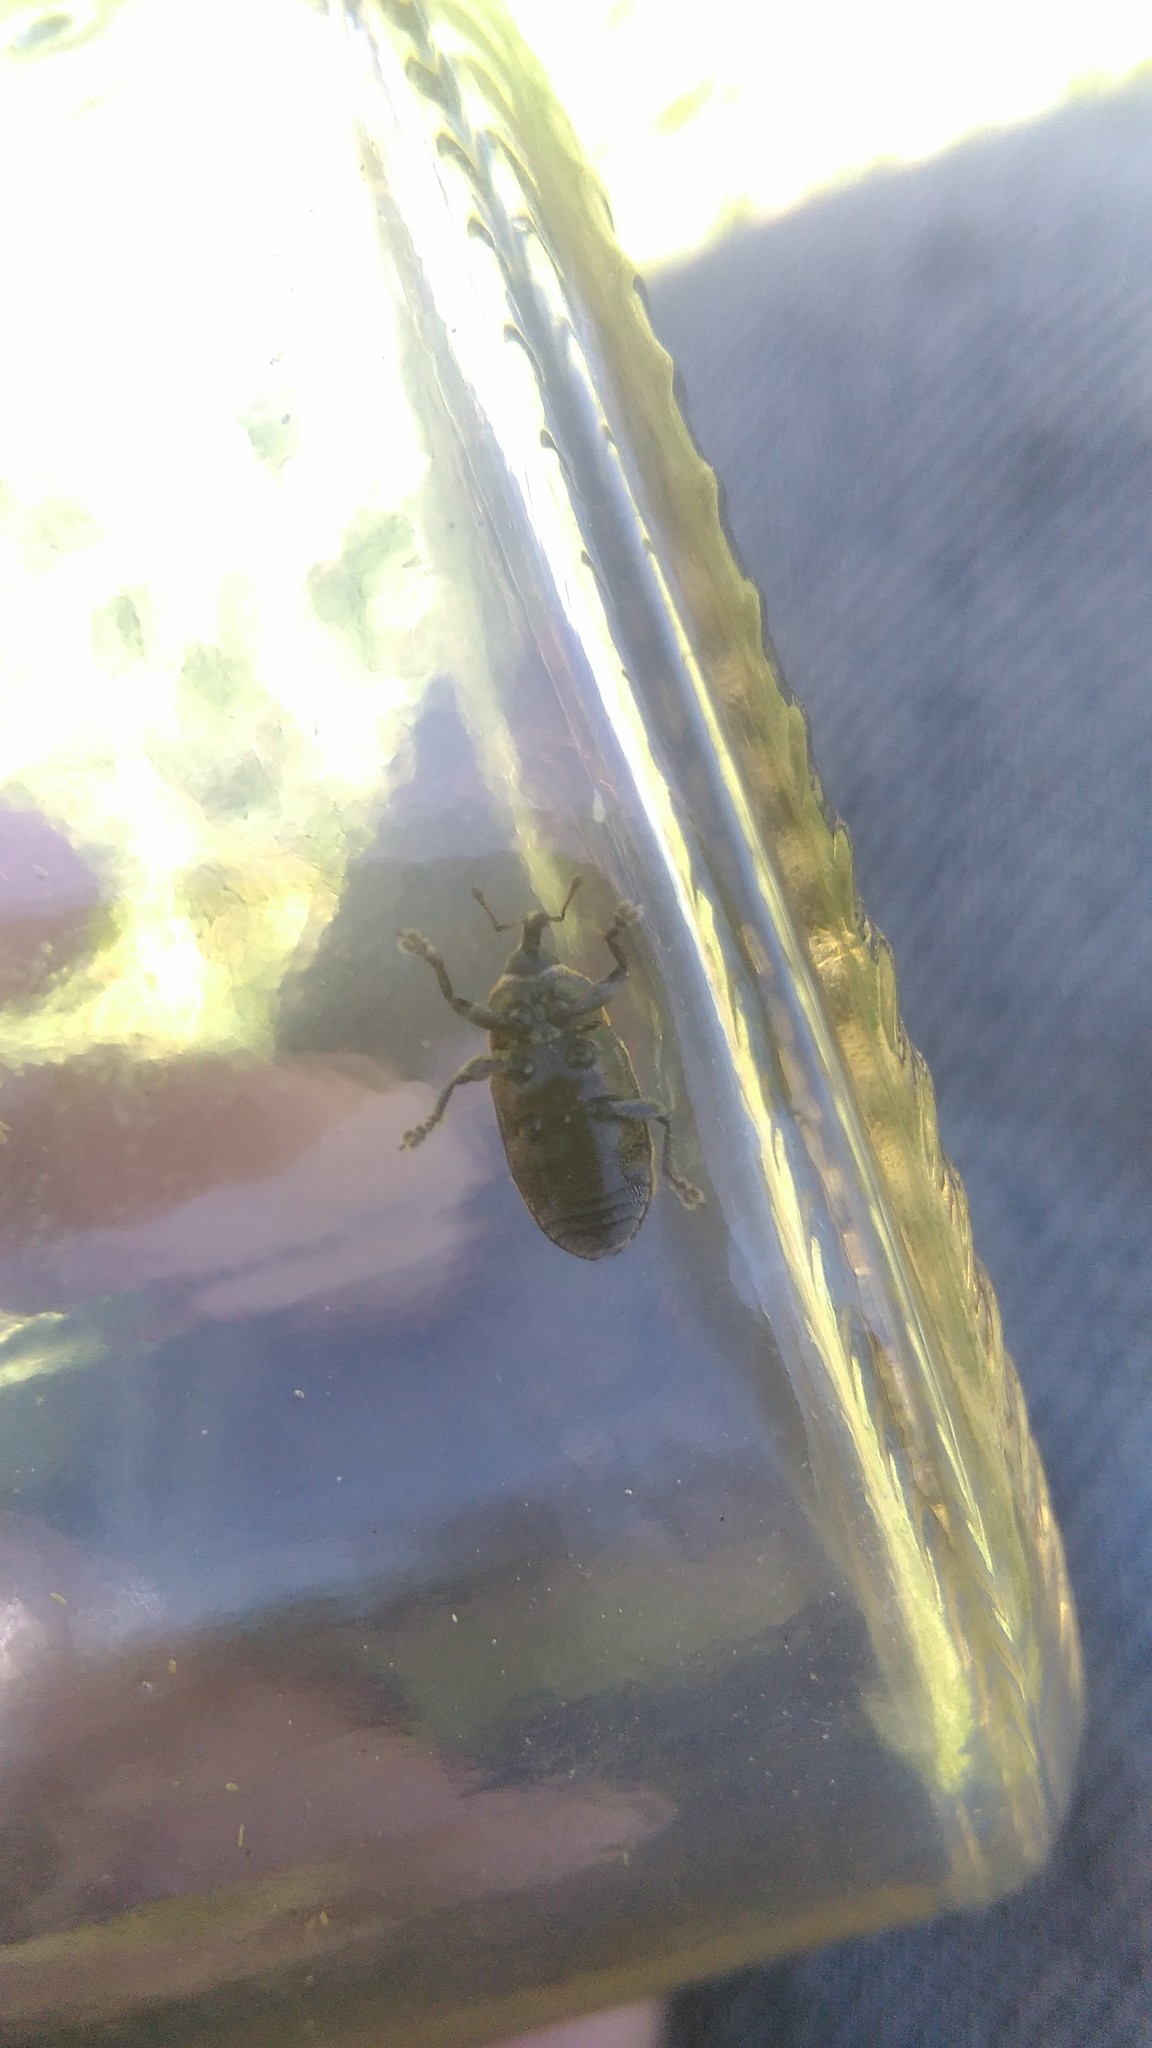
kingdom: Animalia
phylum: Arthropoda
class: Insecta
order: Coleoptera
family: Curculionidae
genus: Demoda
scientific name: Demoda vittata
